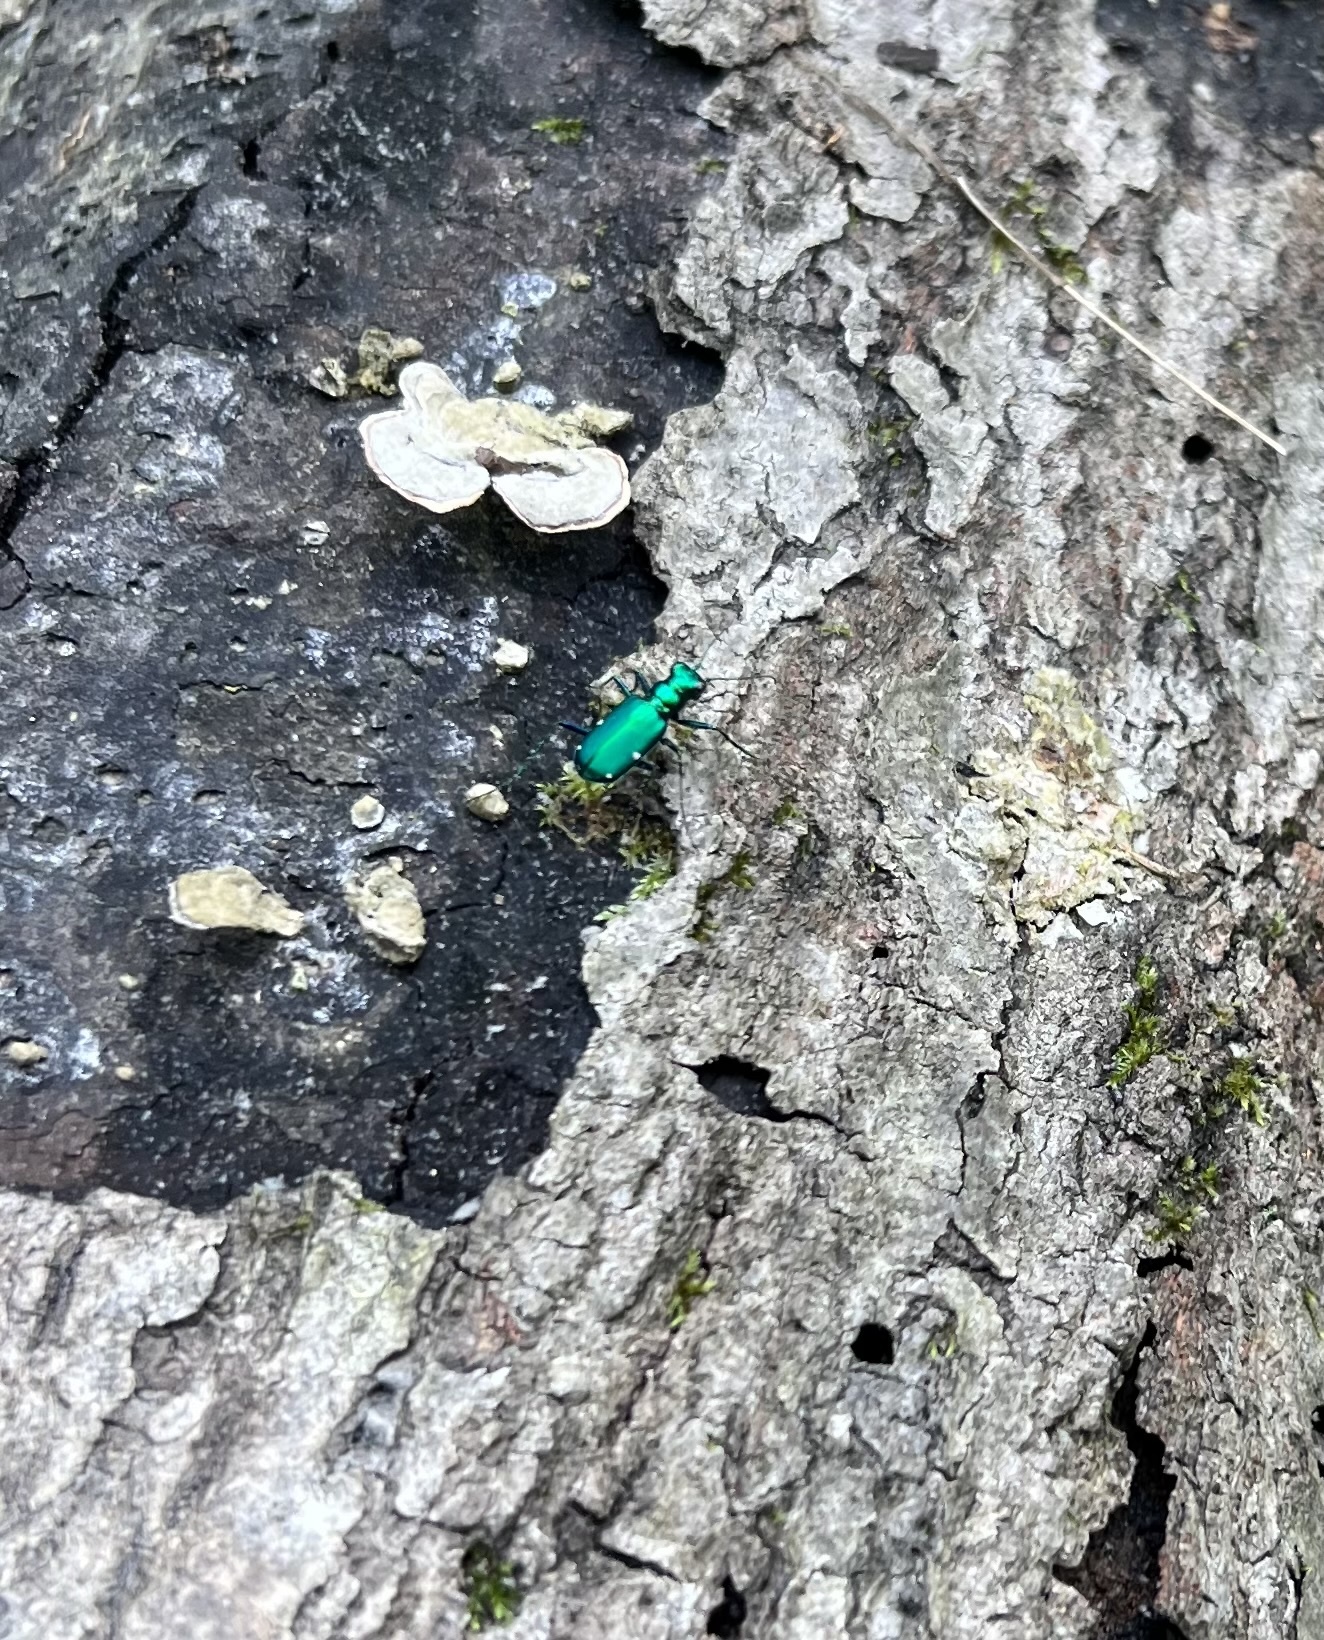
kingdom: Animalia
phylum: Arthropoda
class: Insecta
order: Coleoptera
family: Carabidae
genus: Cicindela
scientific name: Cicindela sexguttata
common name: Six-spotted tiger beetle
